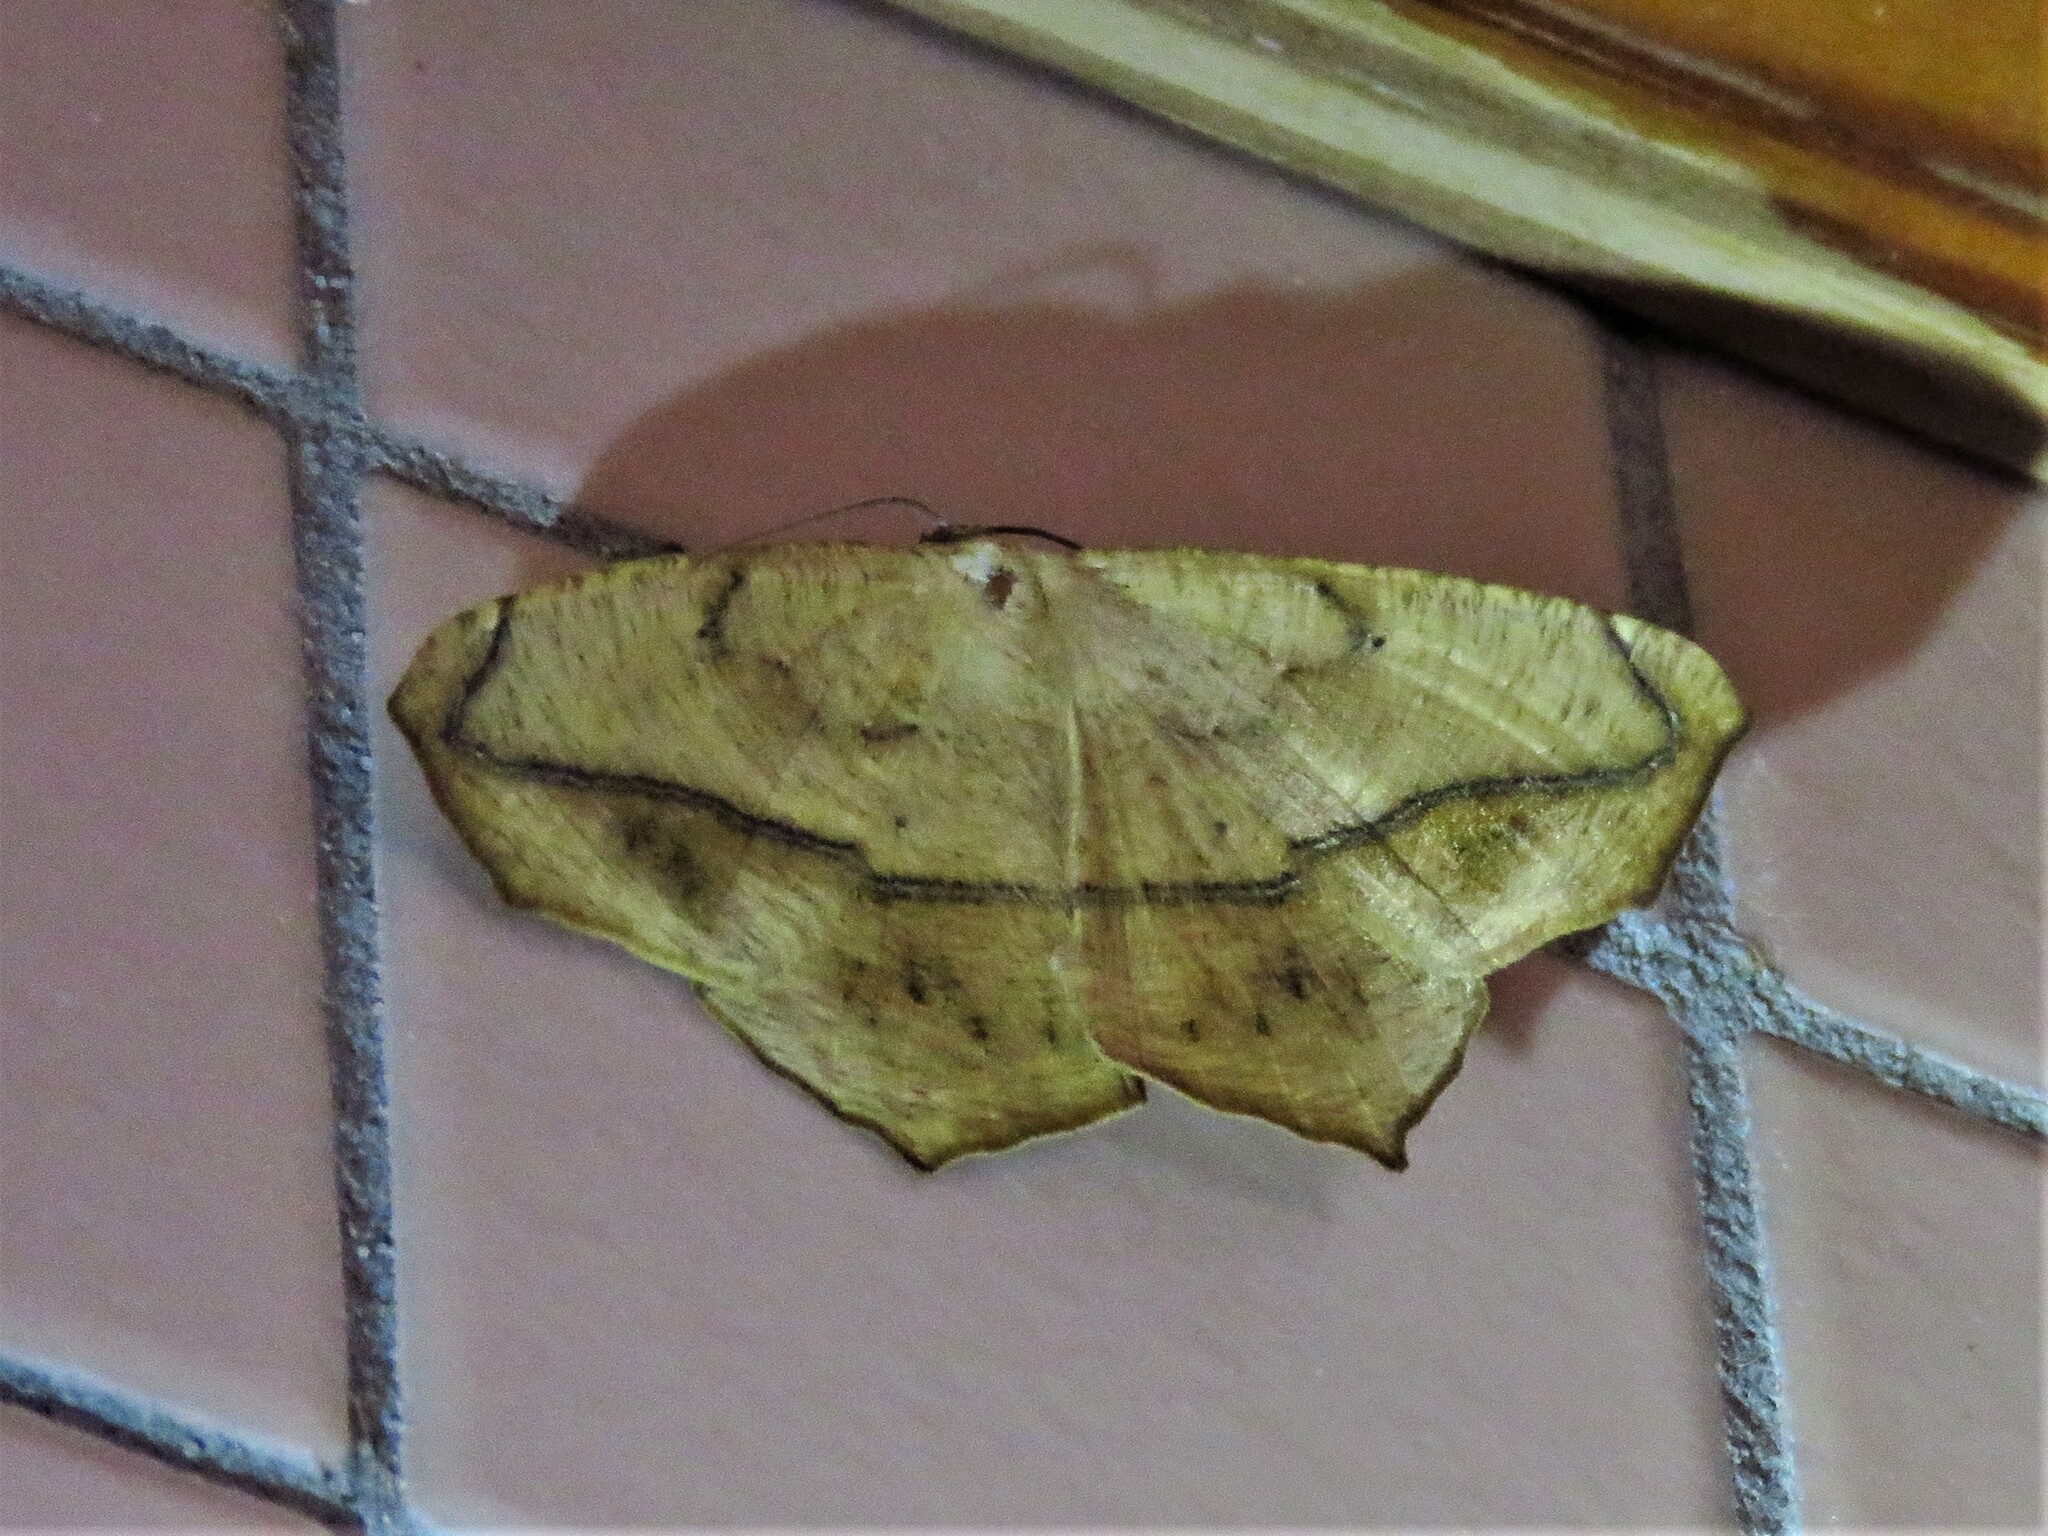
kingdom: Animalia
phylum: Arthropoda
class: Insecta
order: Lepidoptera
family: Geometridae
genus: Prochoerodes
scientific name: Prochoerodes lineola
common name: Large maple spanworm
